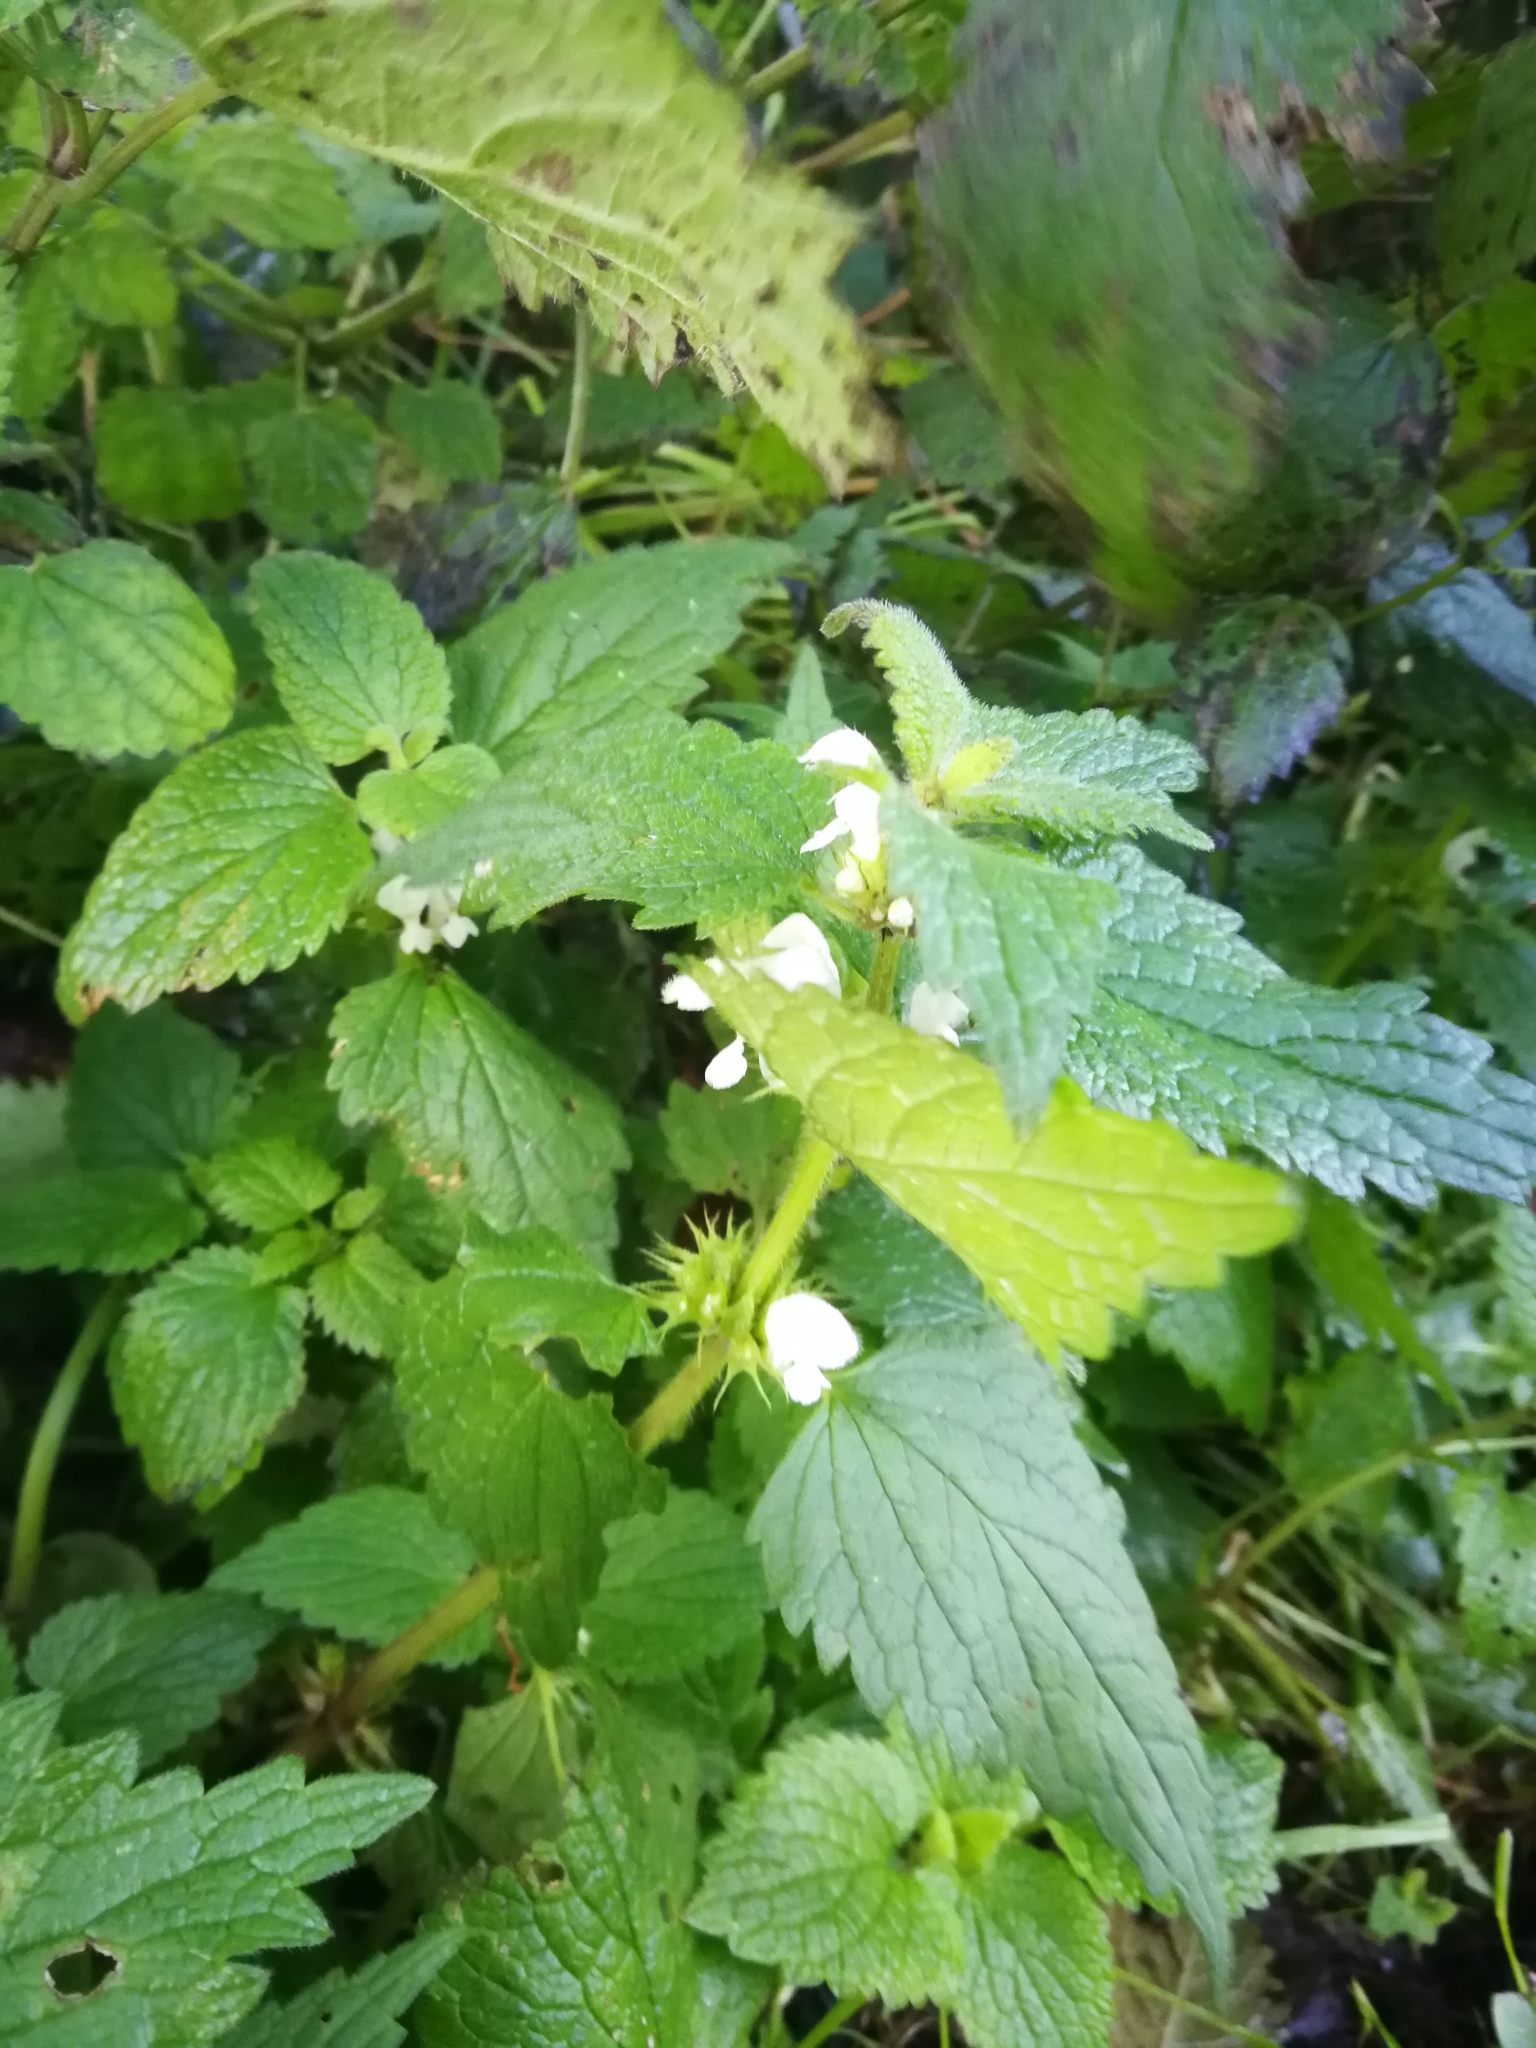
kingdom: Plantae
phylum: Tracheophyta
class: Magnoliopsida
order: Lamiales
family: Lamiaceae
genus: Lamium
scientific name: Lamium album
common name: White dead-nettle
